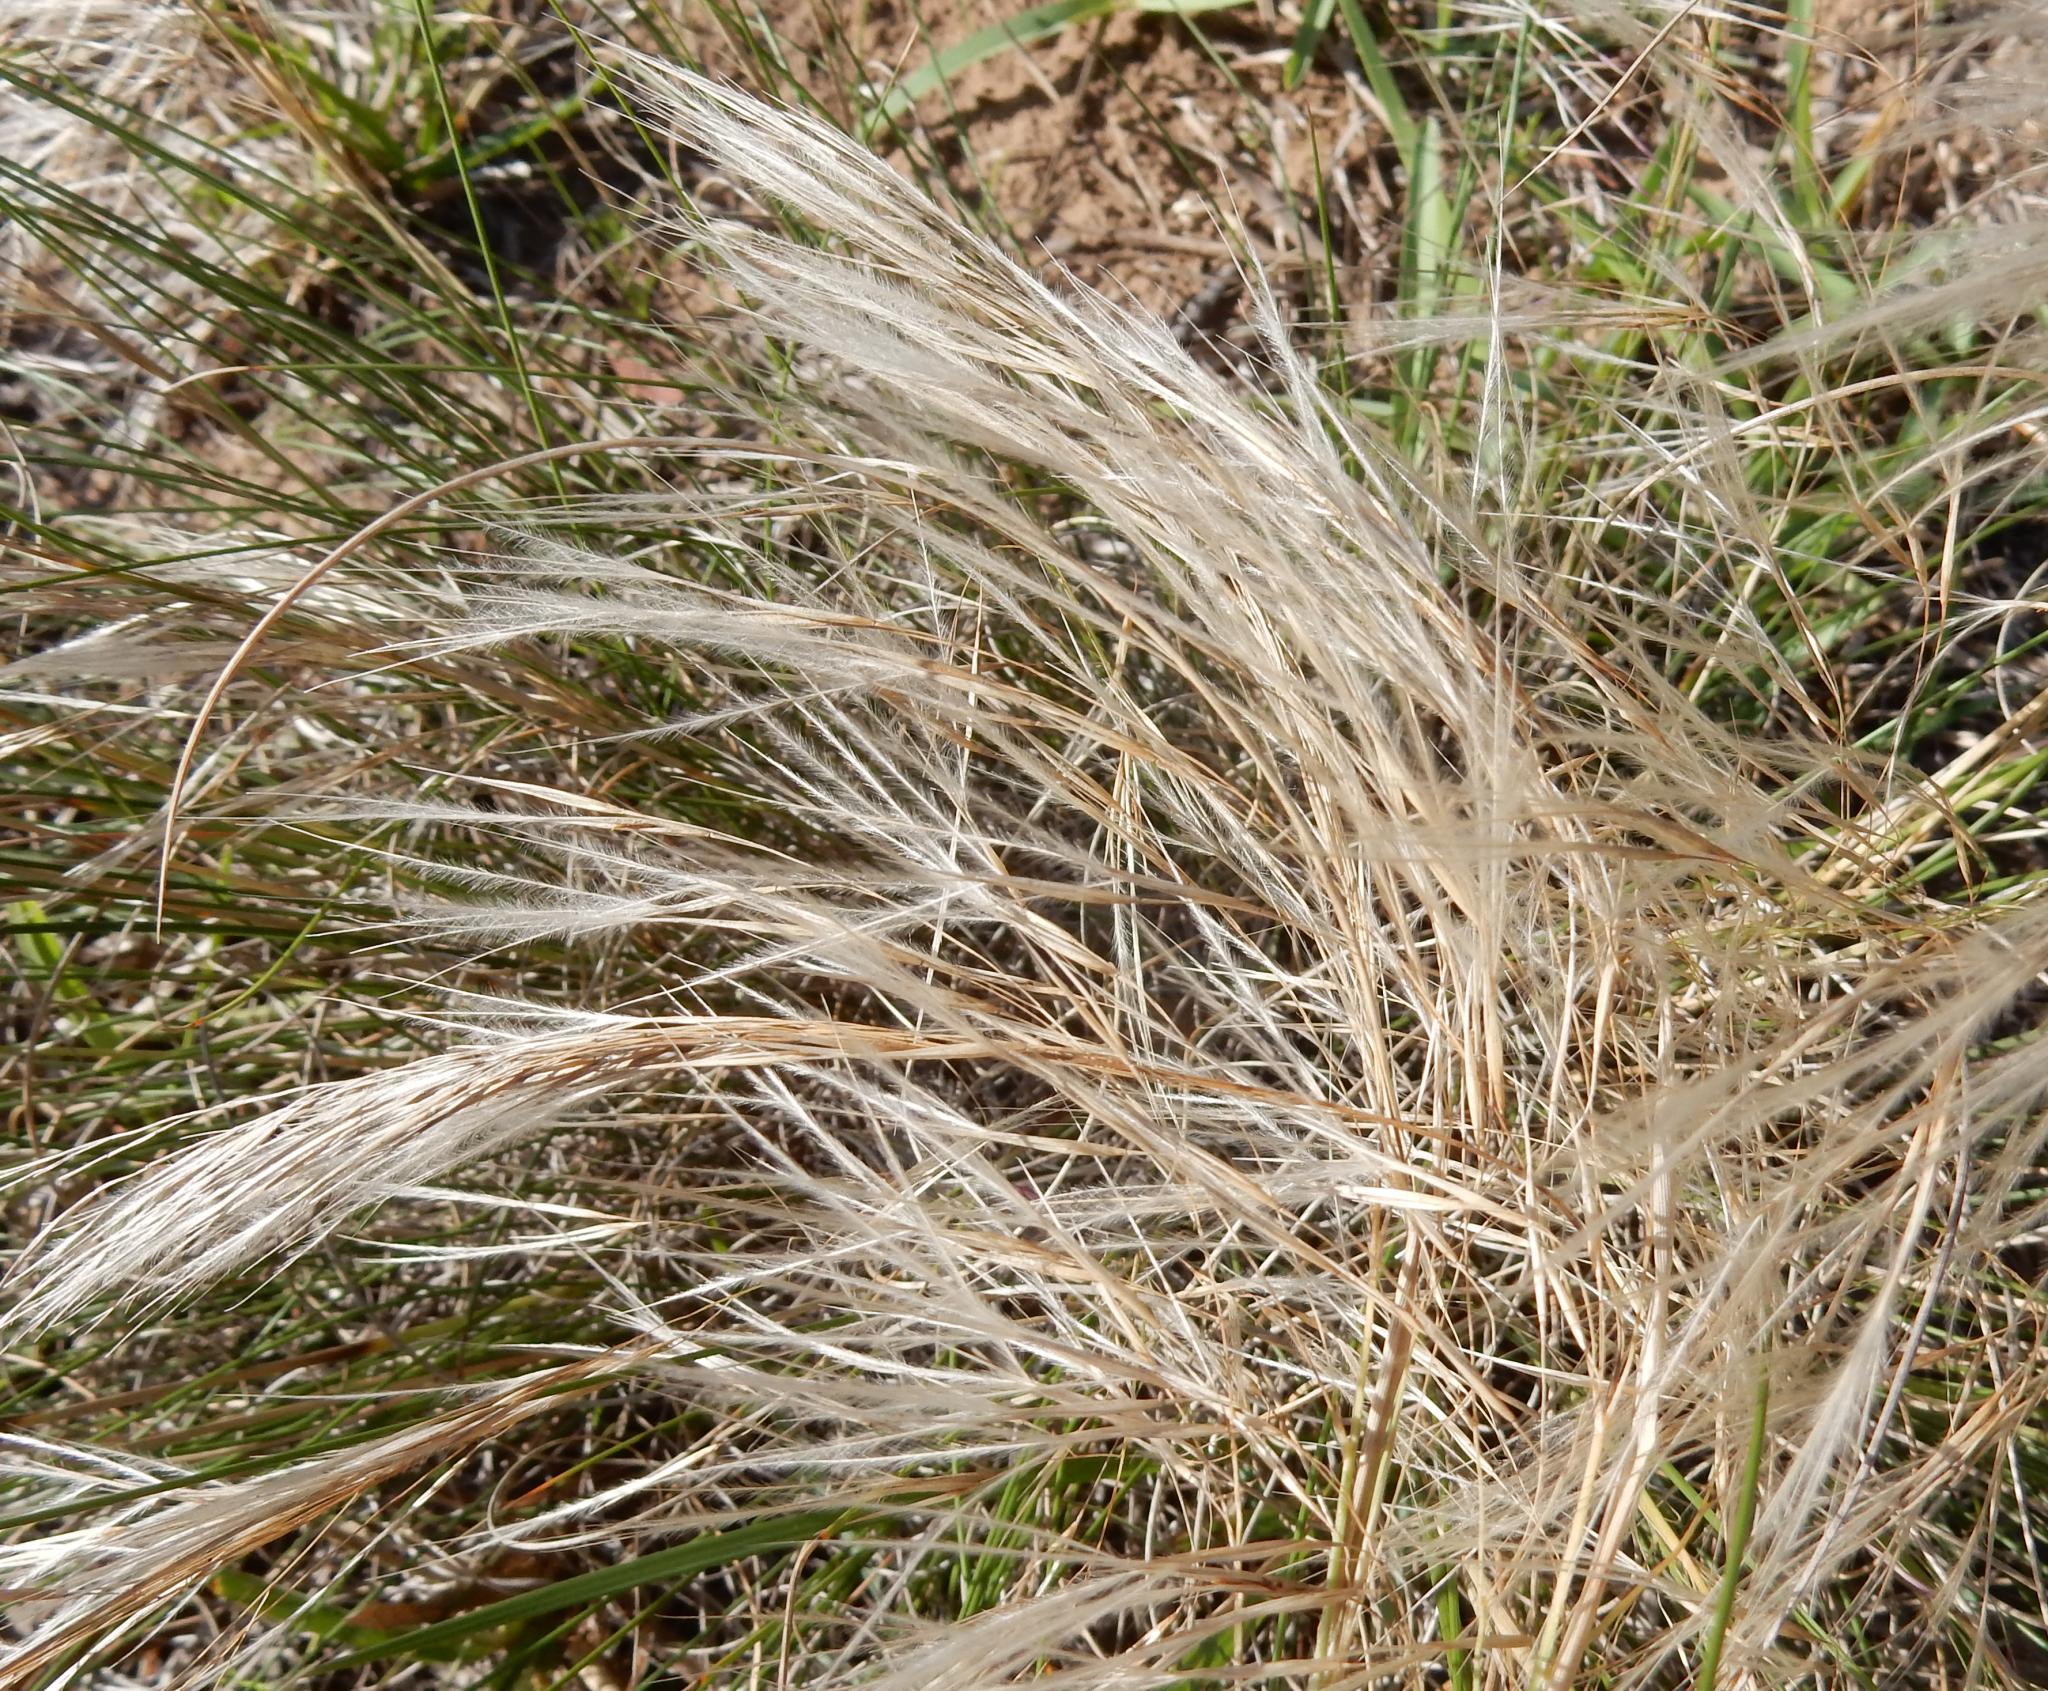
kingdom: Plantae
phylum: Tracheophyta
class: Liliopsida
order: Poales
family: Poaceae
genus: Stipagrostis
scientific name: Stipagrostis zeyheri
